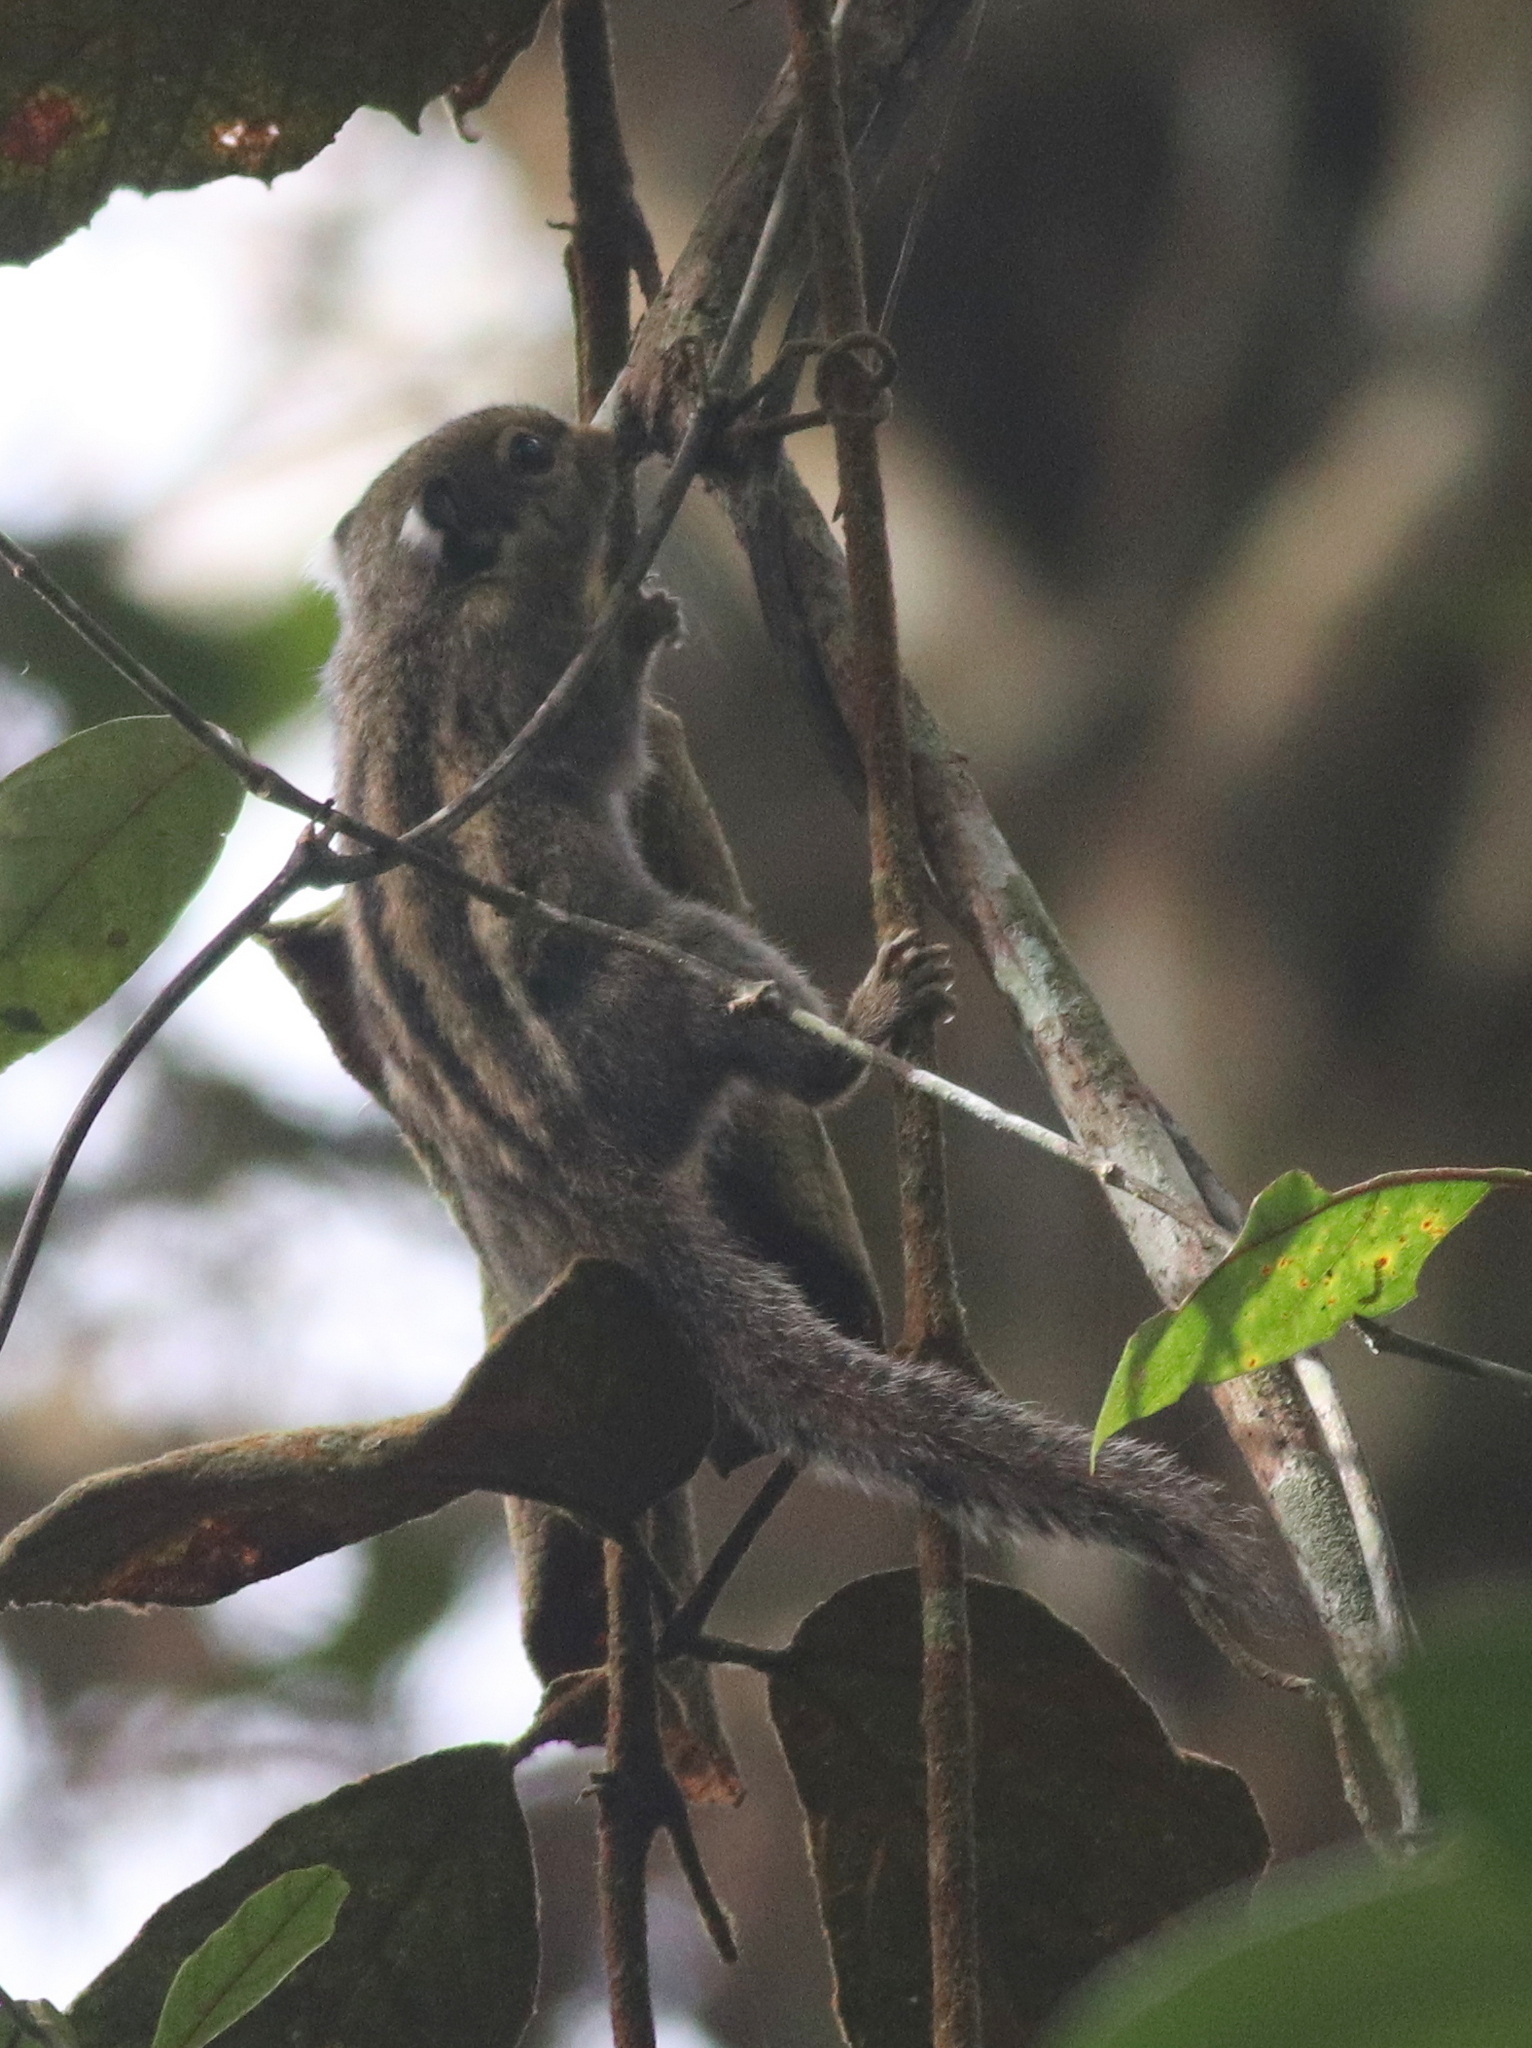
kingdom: Animalia
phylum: Chordata
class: Mammalia
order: Rodentia
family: Sciuridae
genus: Tamiops
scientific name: Tamiops mcclellandii
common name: Himalayan striped squirrel
